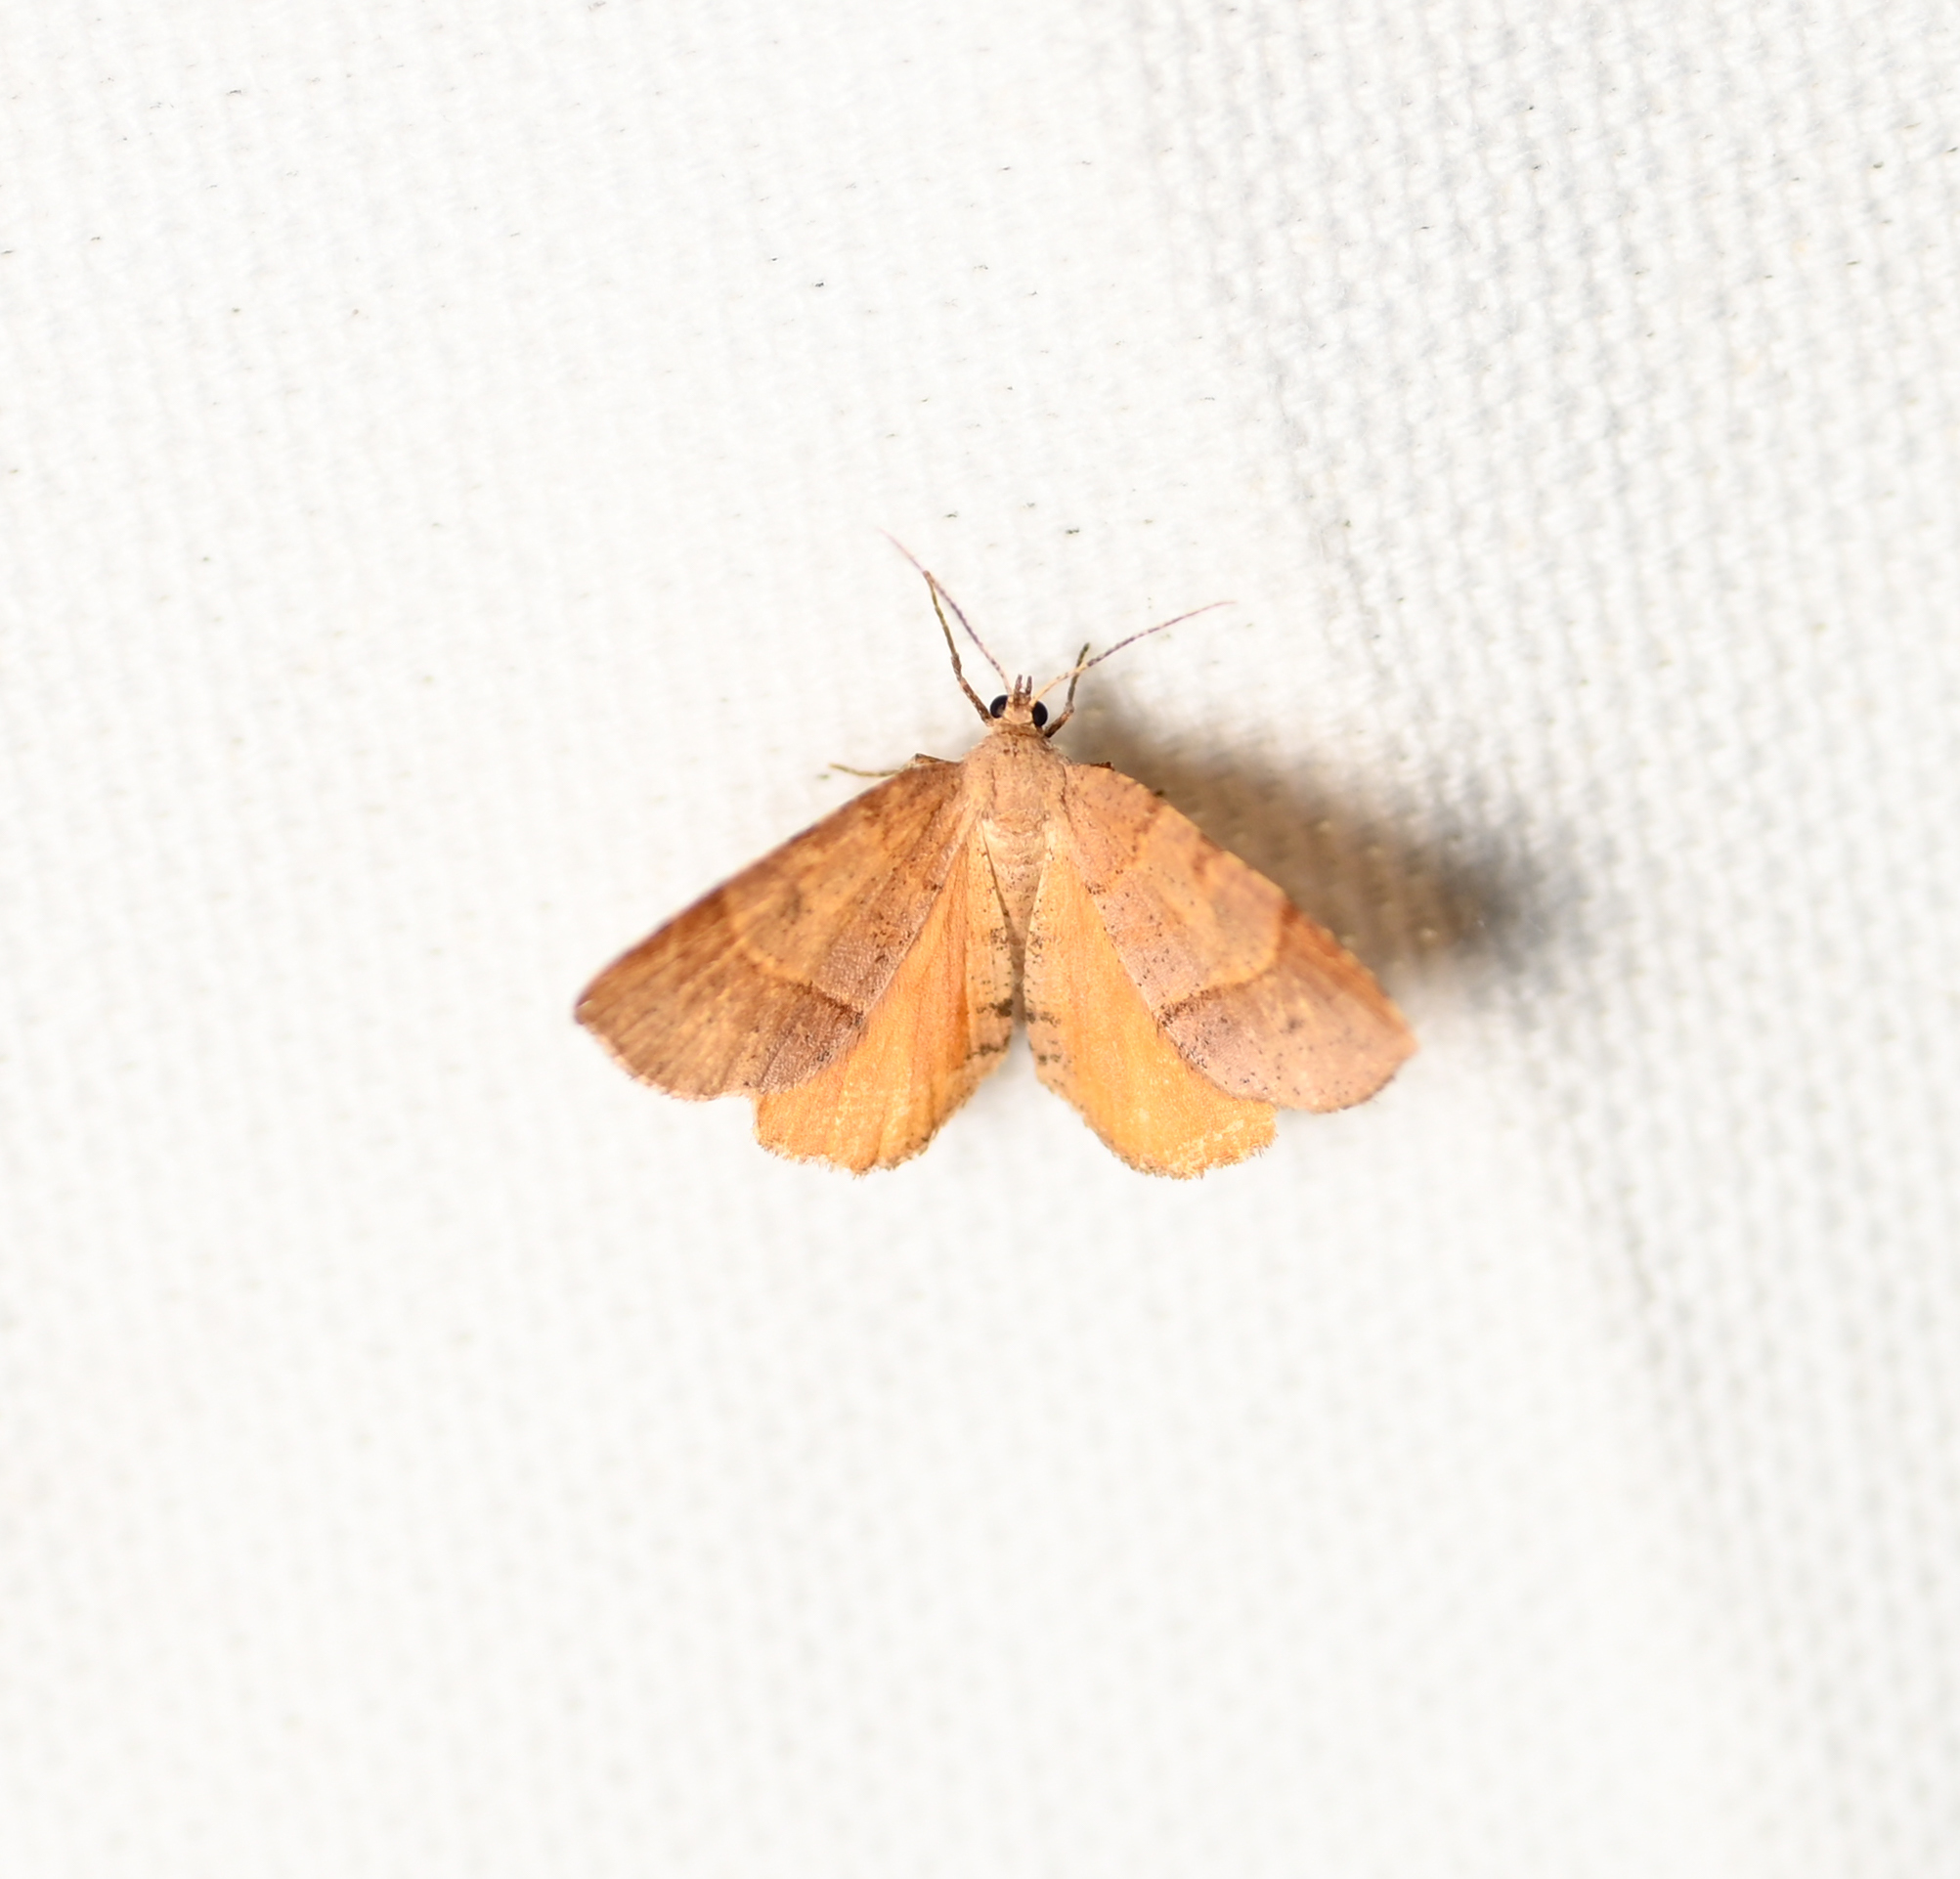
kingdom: Animalia
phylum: Arthropoda
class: Insecta
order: Lepidoptera
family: Geometridae
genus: Mellilla
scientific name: Mellilla xanthometata
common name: Orange wing moth
